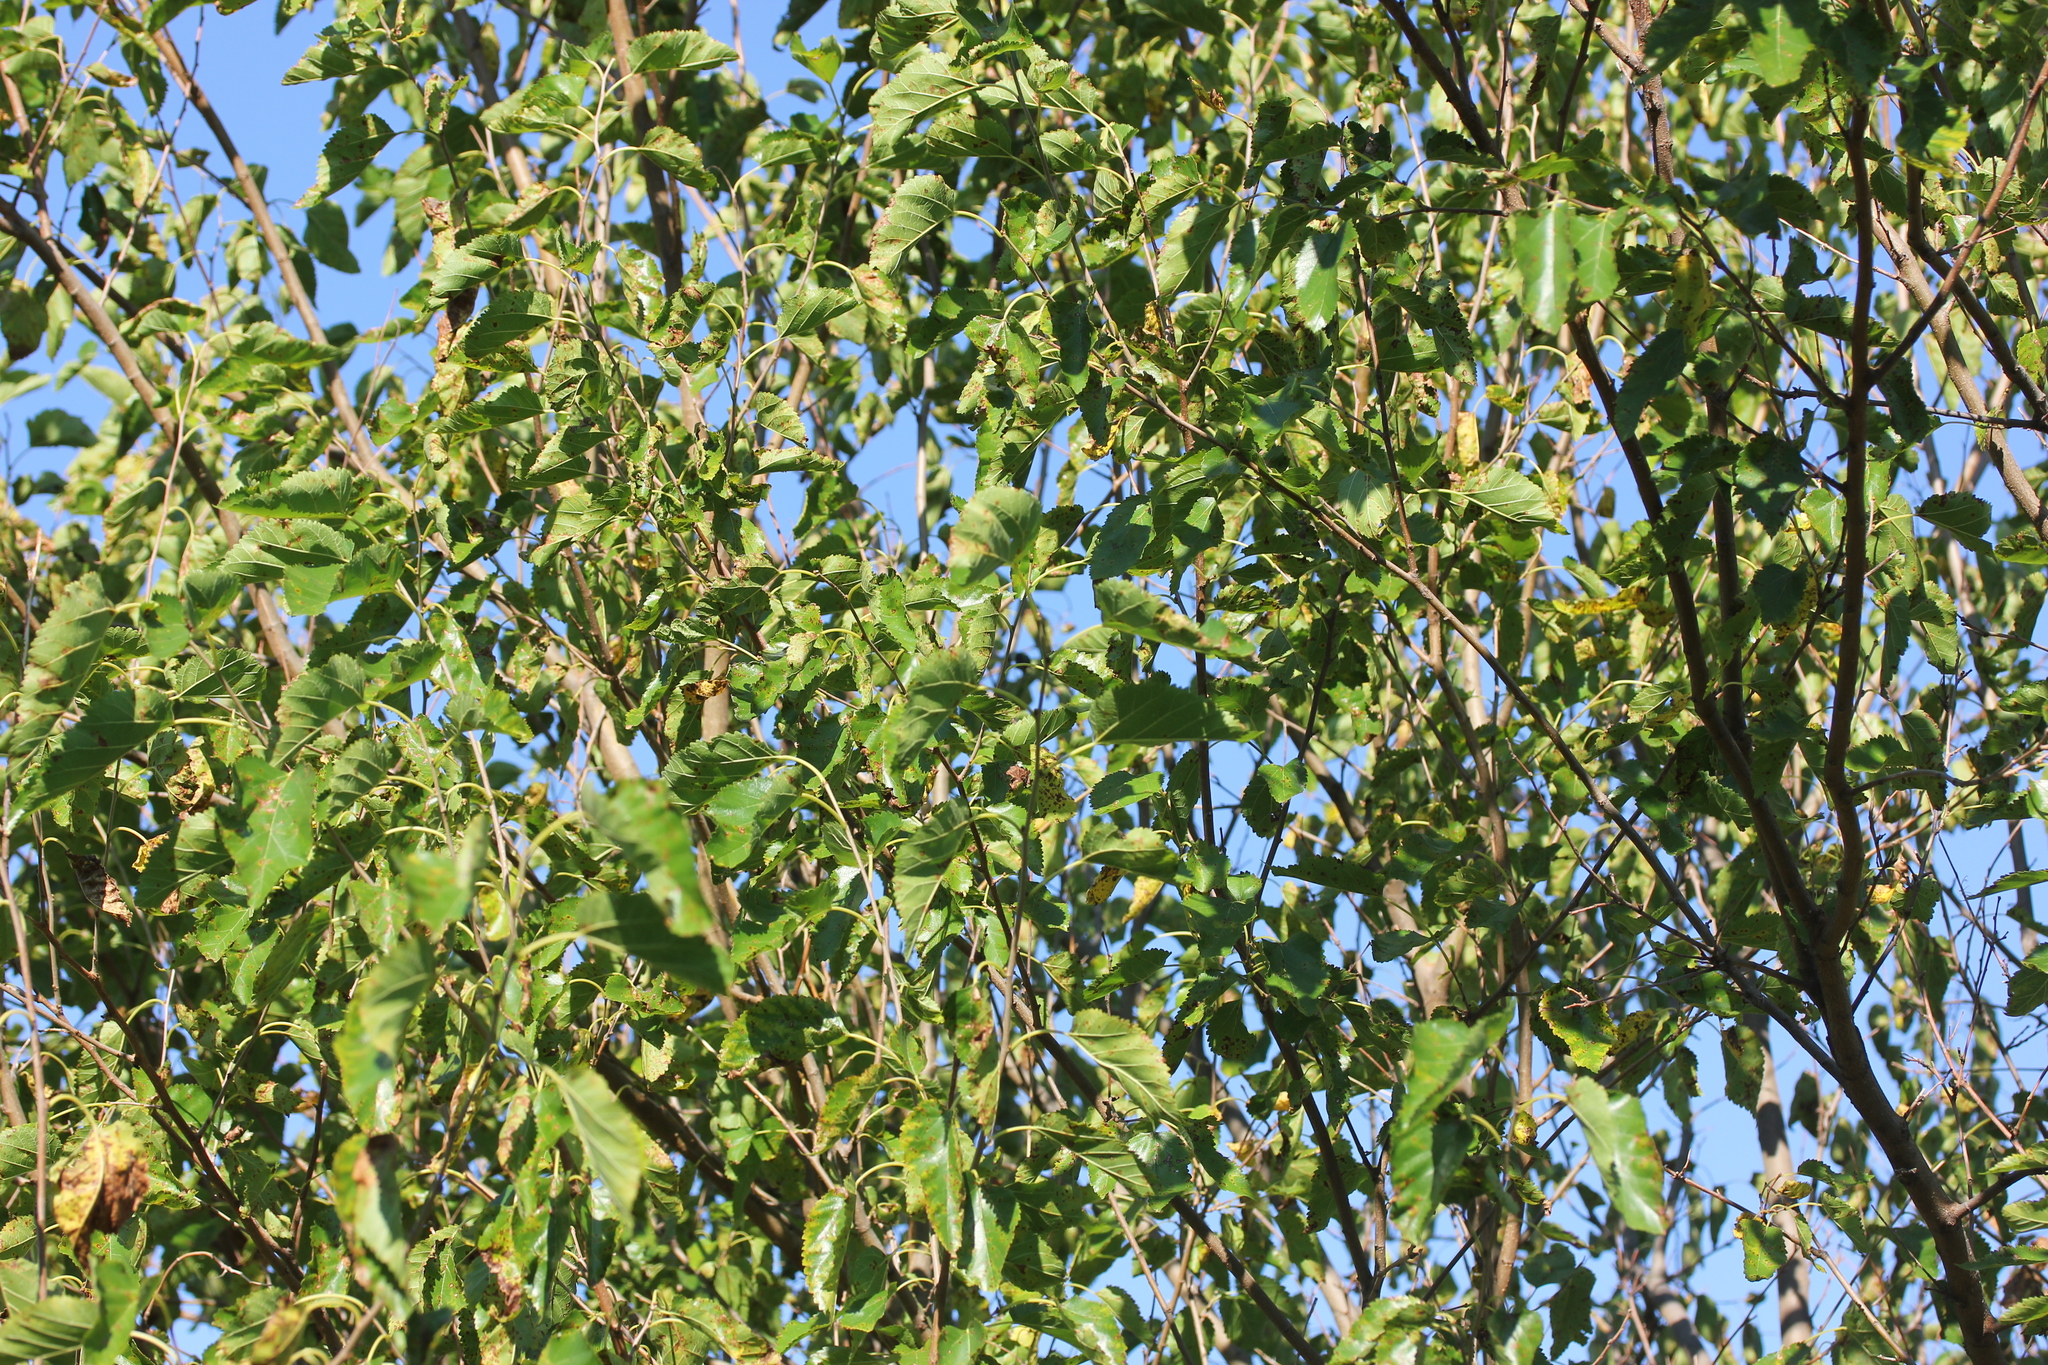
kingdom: Plantae
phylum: Tracheophyta
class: Magnoliopsida
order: Rosales
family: Moraceae
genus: Morus
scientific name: Morus alba
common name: White mulberry
